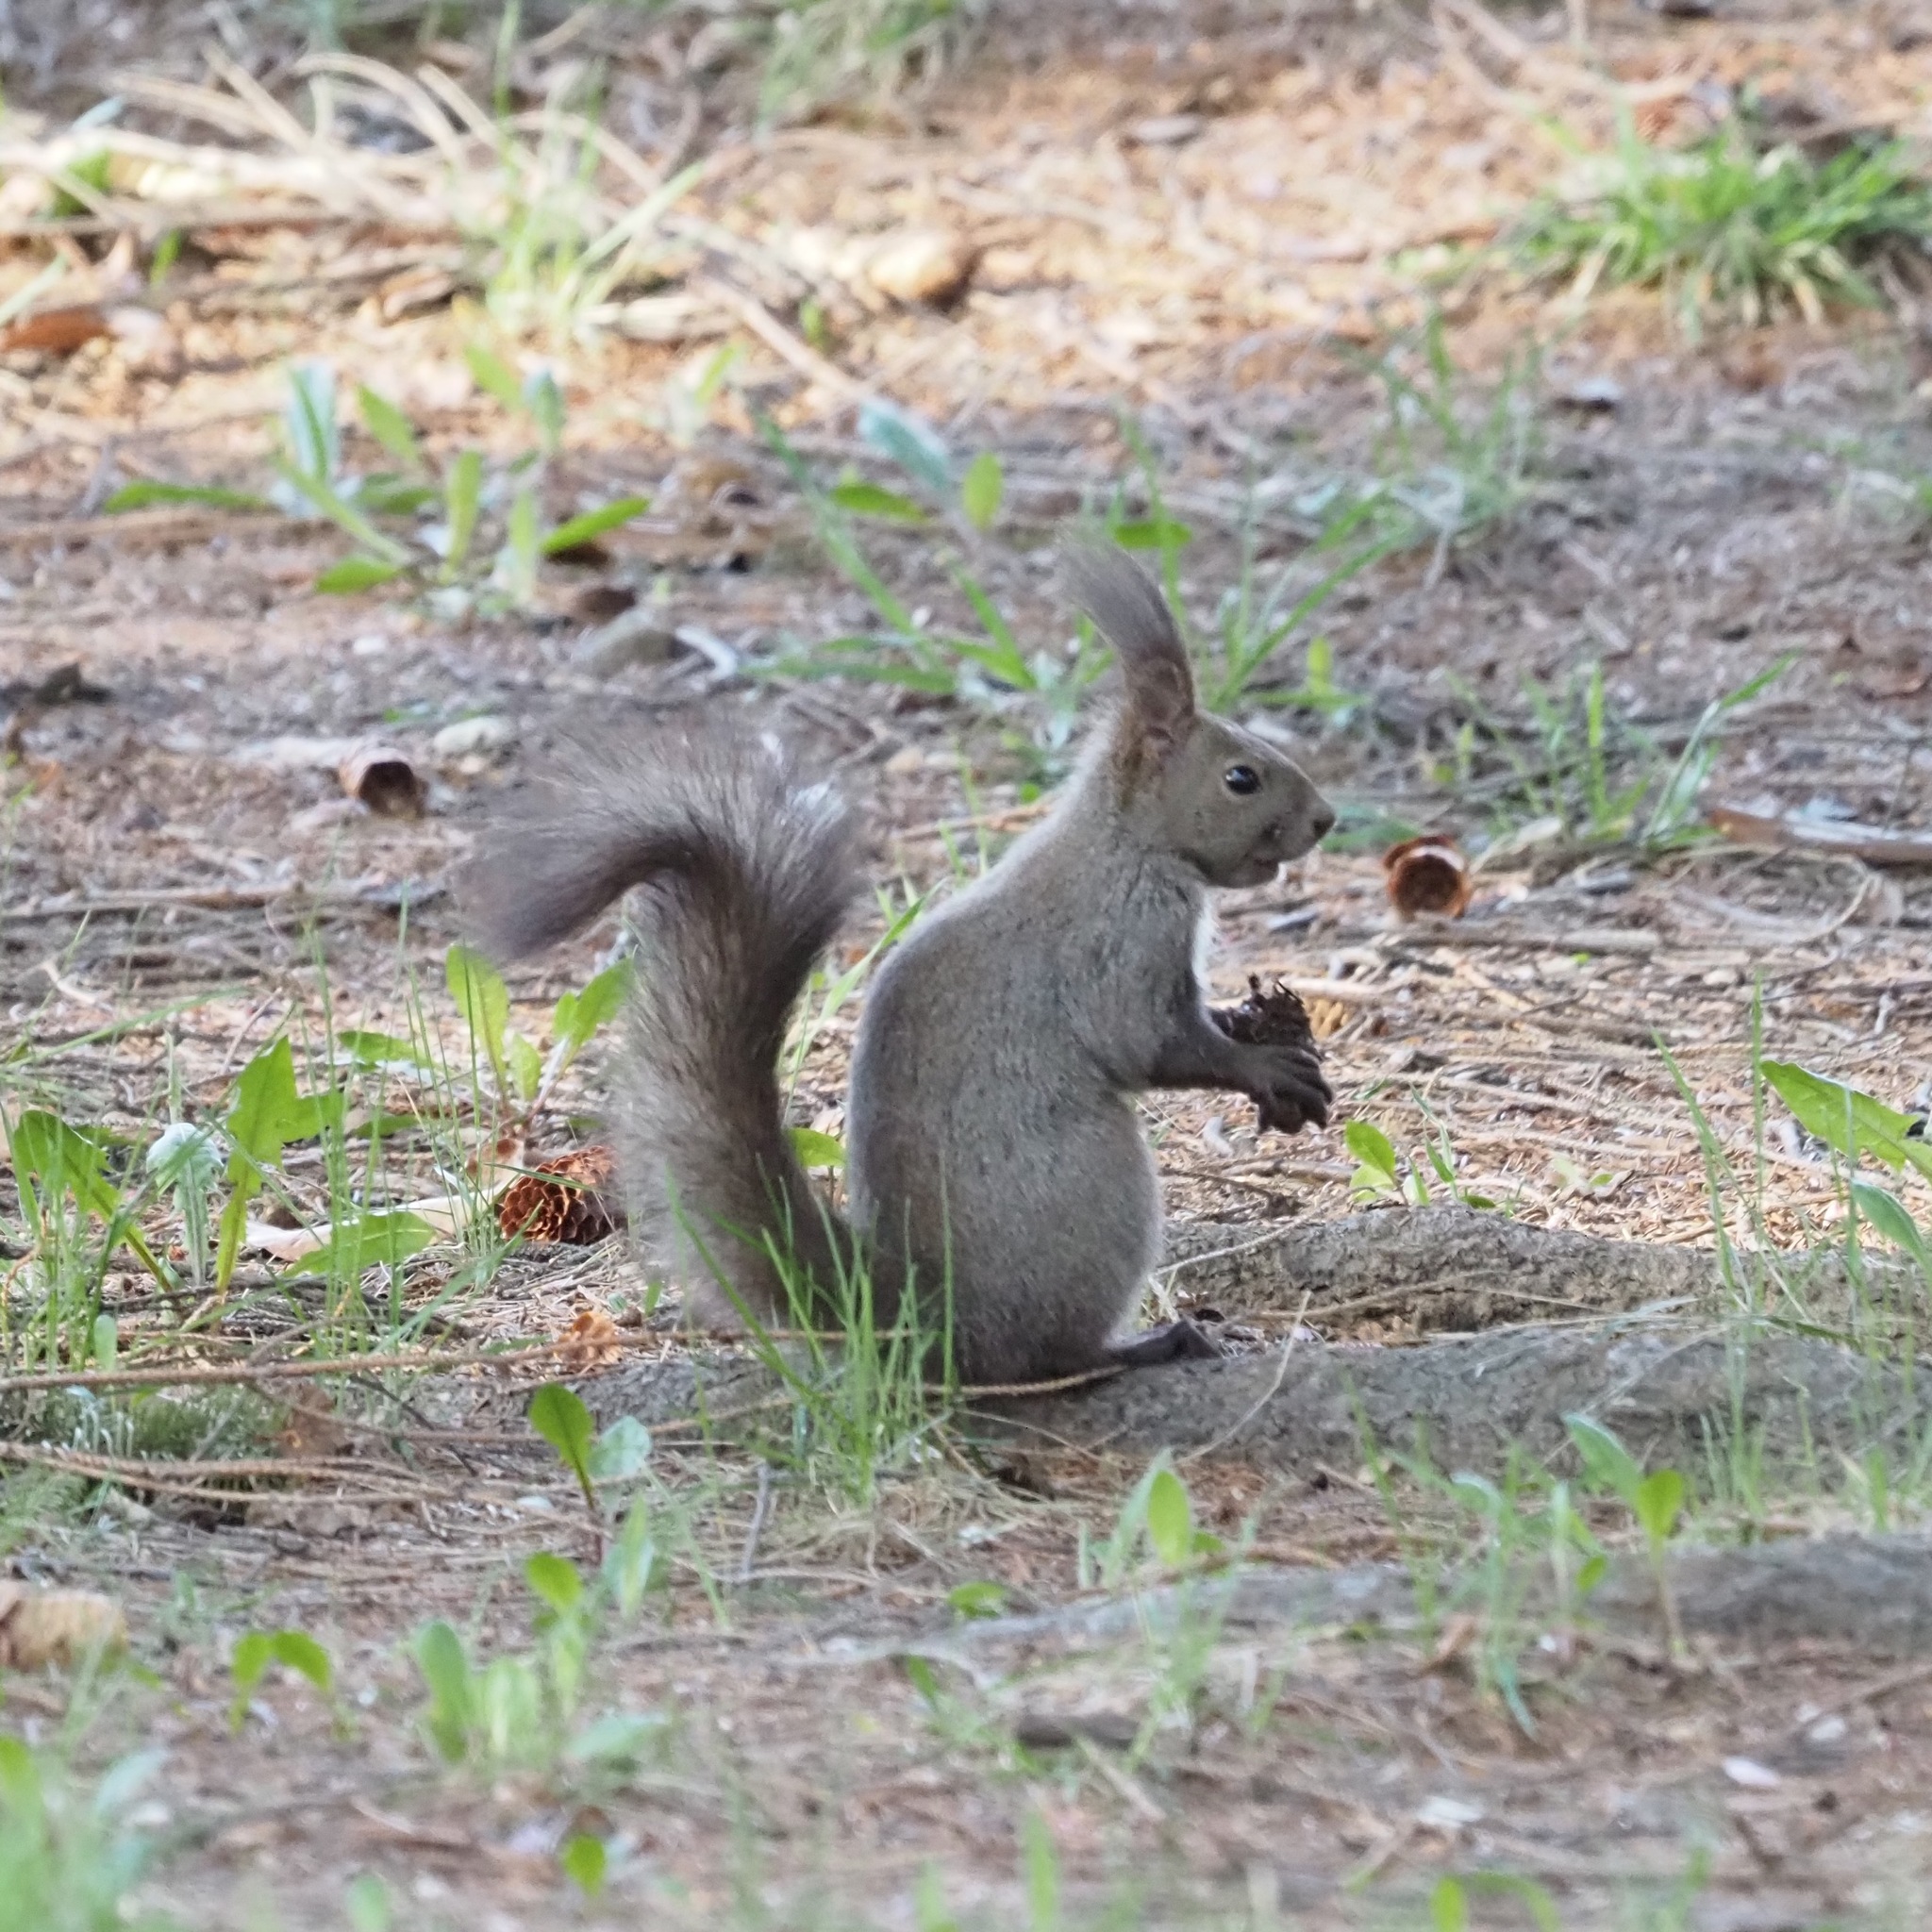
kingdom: Animalia
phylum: Chordata
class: Mammalia
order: Rodentia
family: Sciuridae
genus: Sciurus
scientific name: Sciurus vulgaris
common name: Eurasian red squirrel
